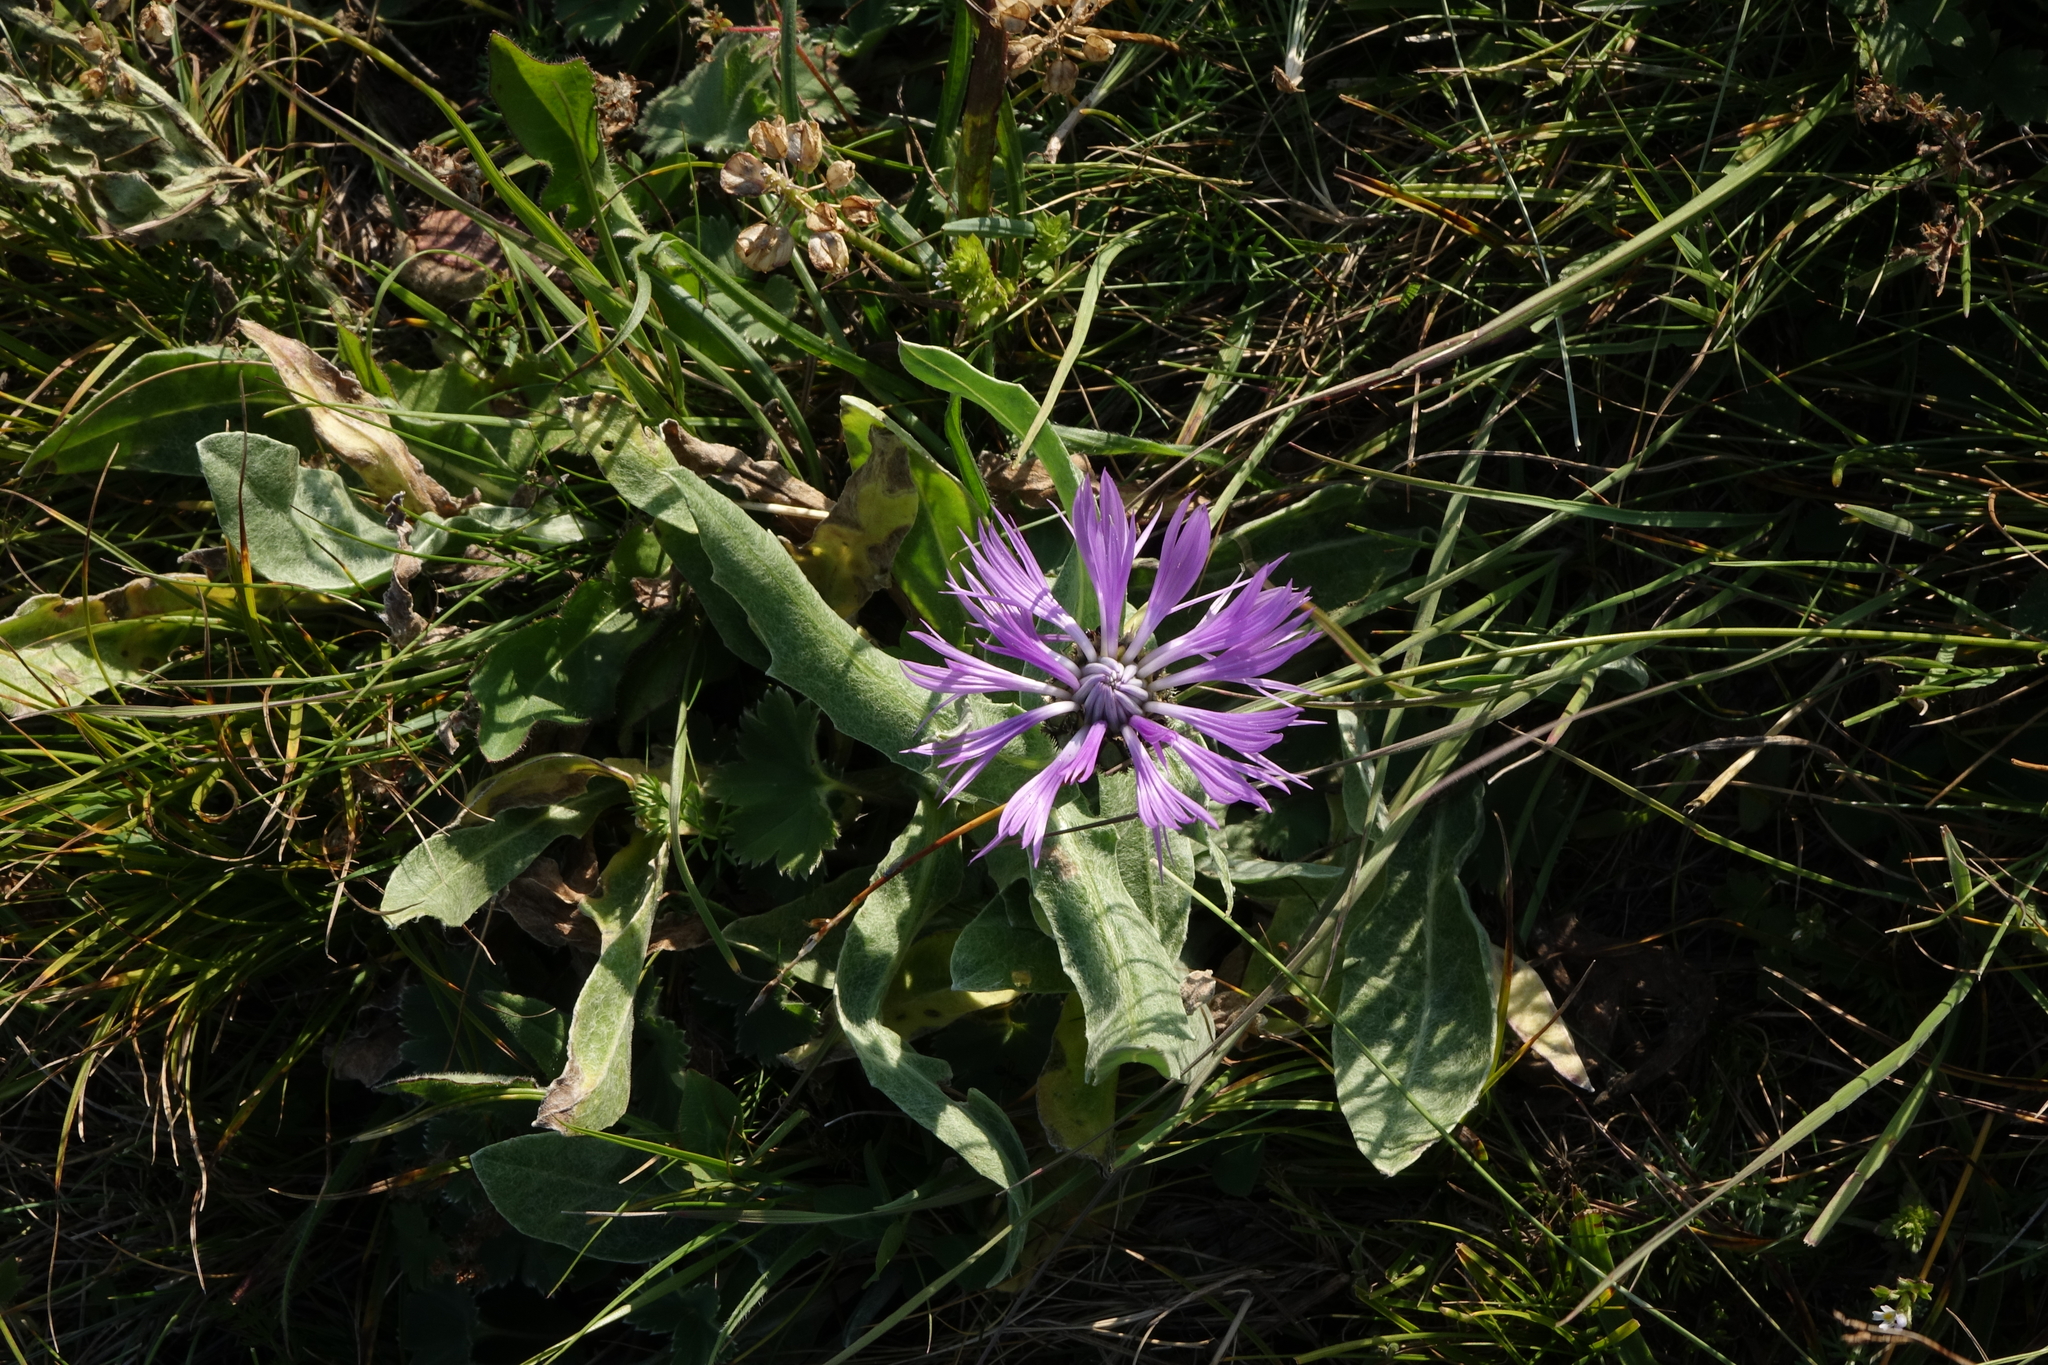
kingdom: Plantae
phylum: Tracheophyta
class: Magnoliopsida
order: Asterales
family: Asteraceae
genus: Centaurea
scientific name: Centaurea cheiranthifolia
